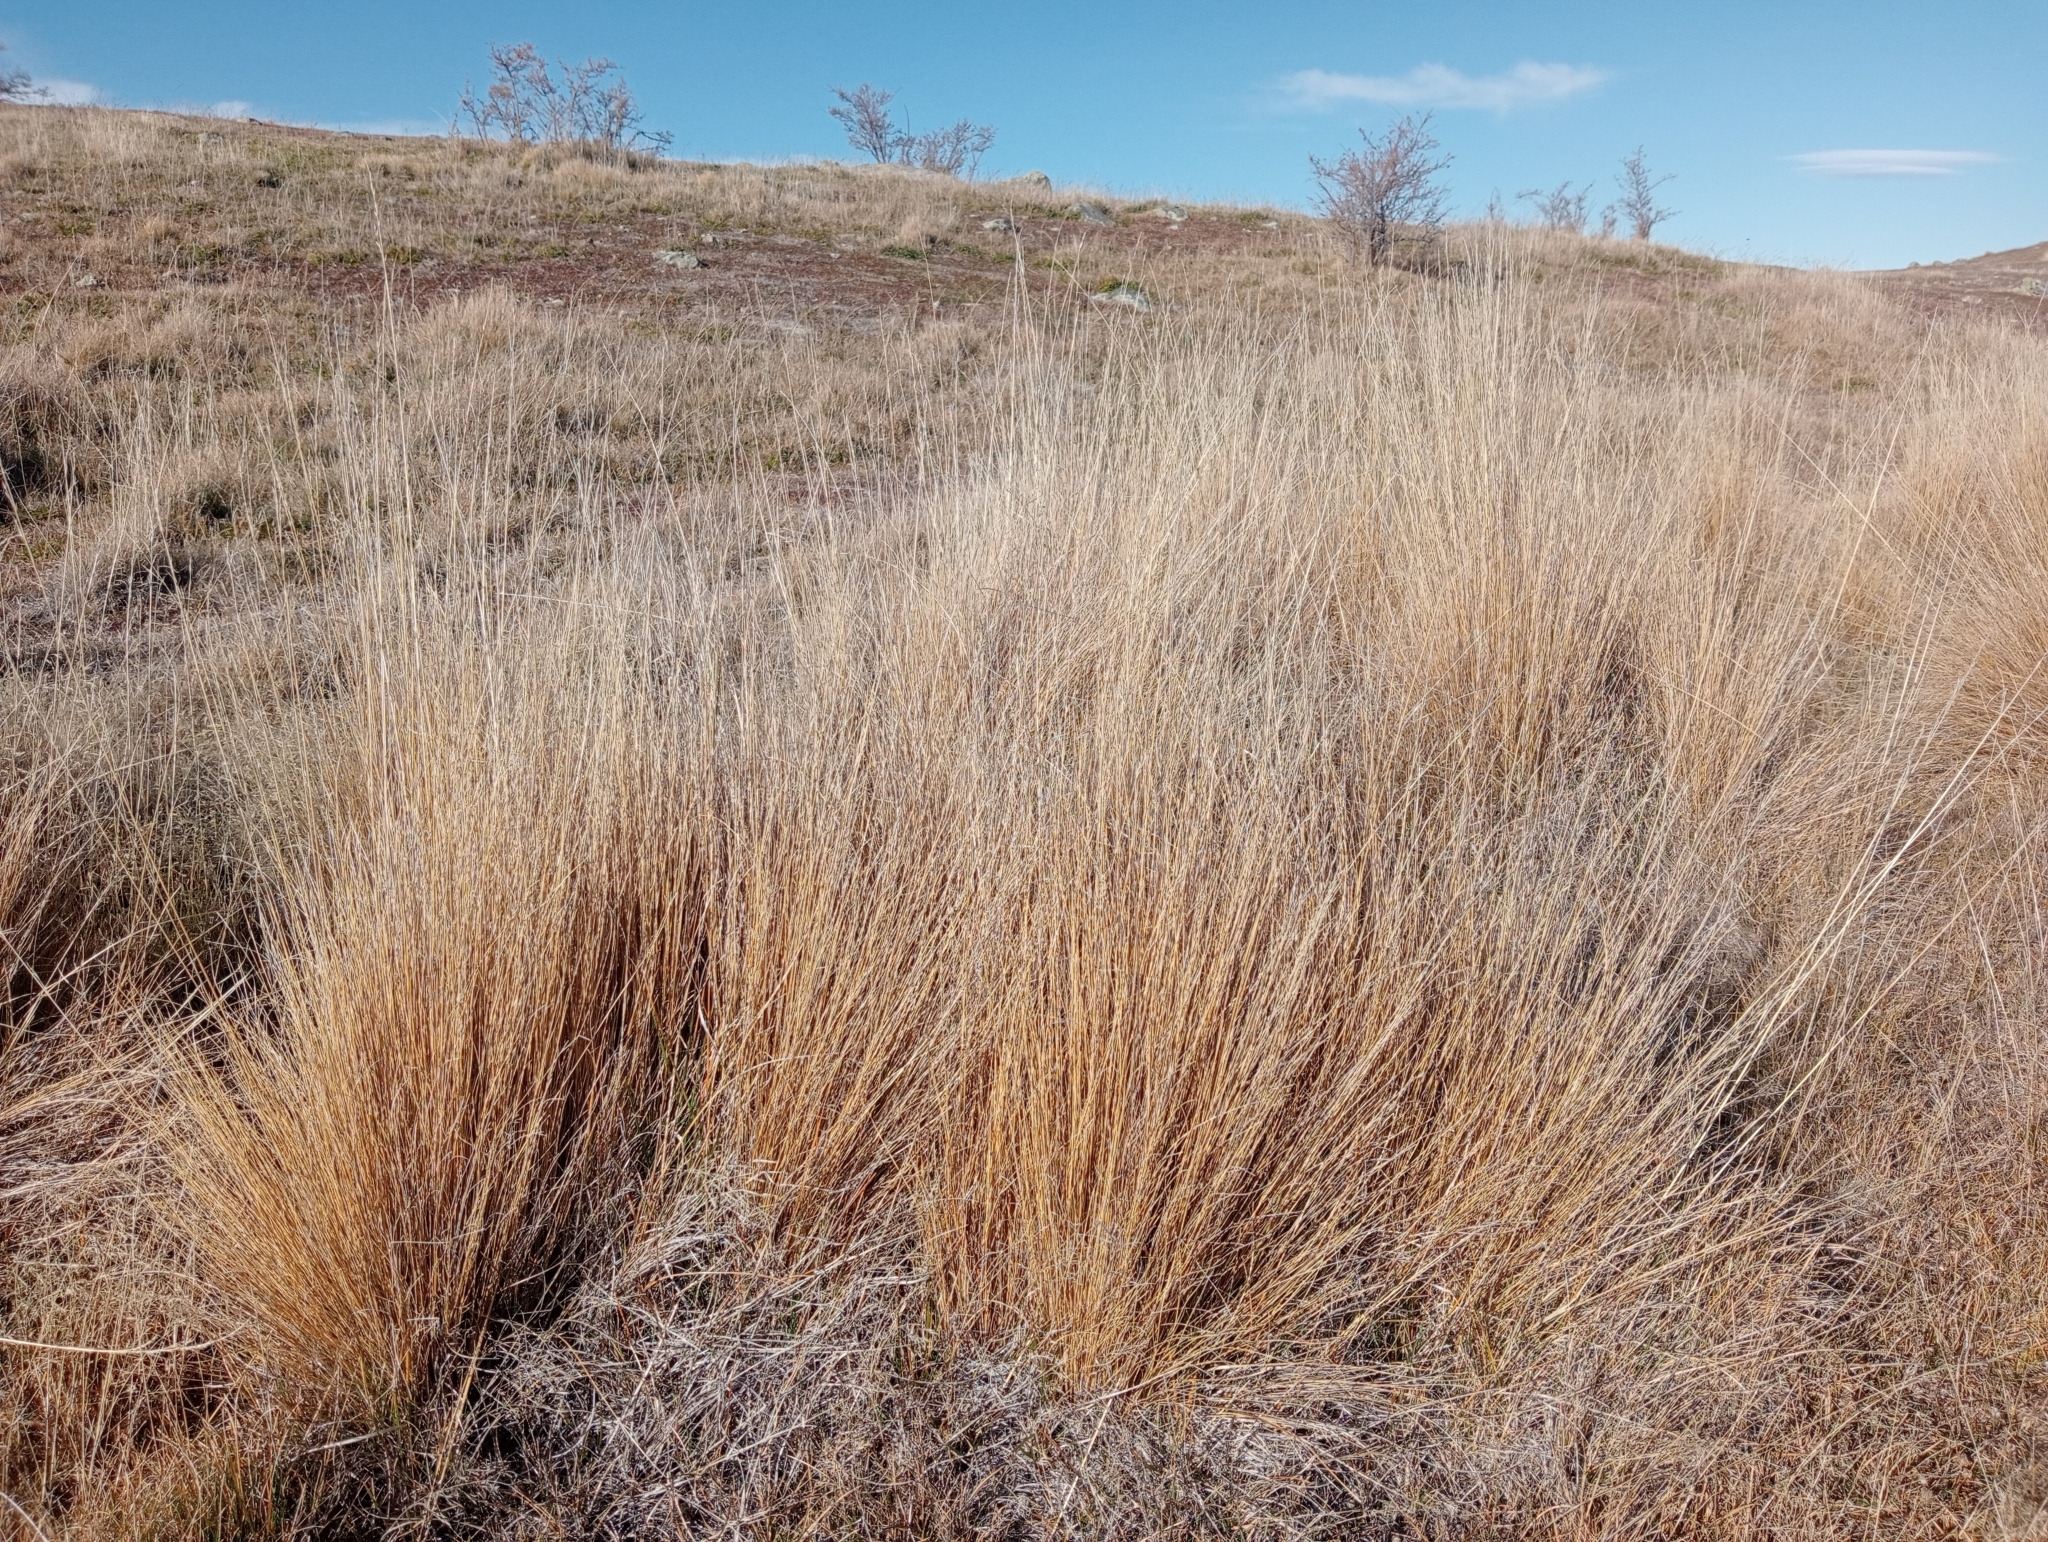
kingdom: Plantae
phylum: Tracheophyta
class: Liliopsida
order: Poales
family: Poaceae
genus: Festuca
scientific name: Festuca novae-zelandiae
